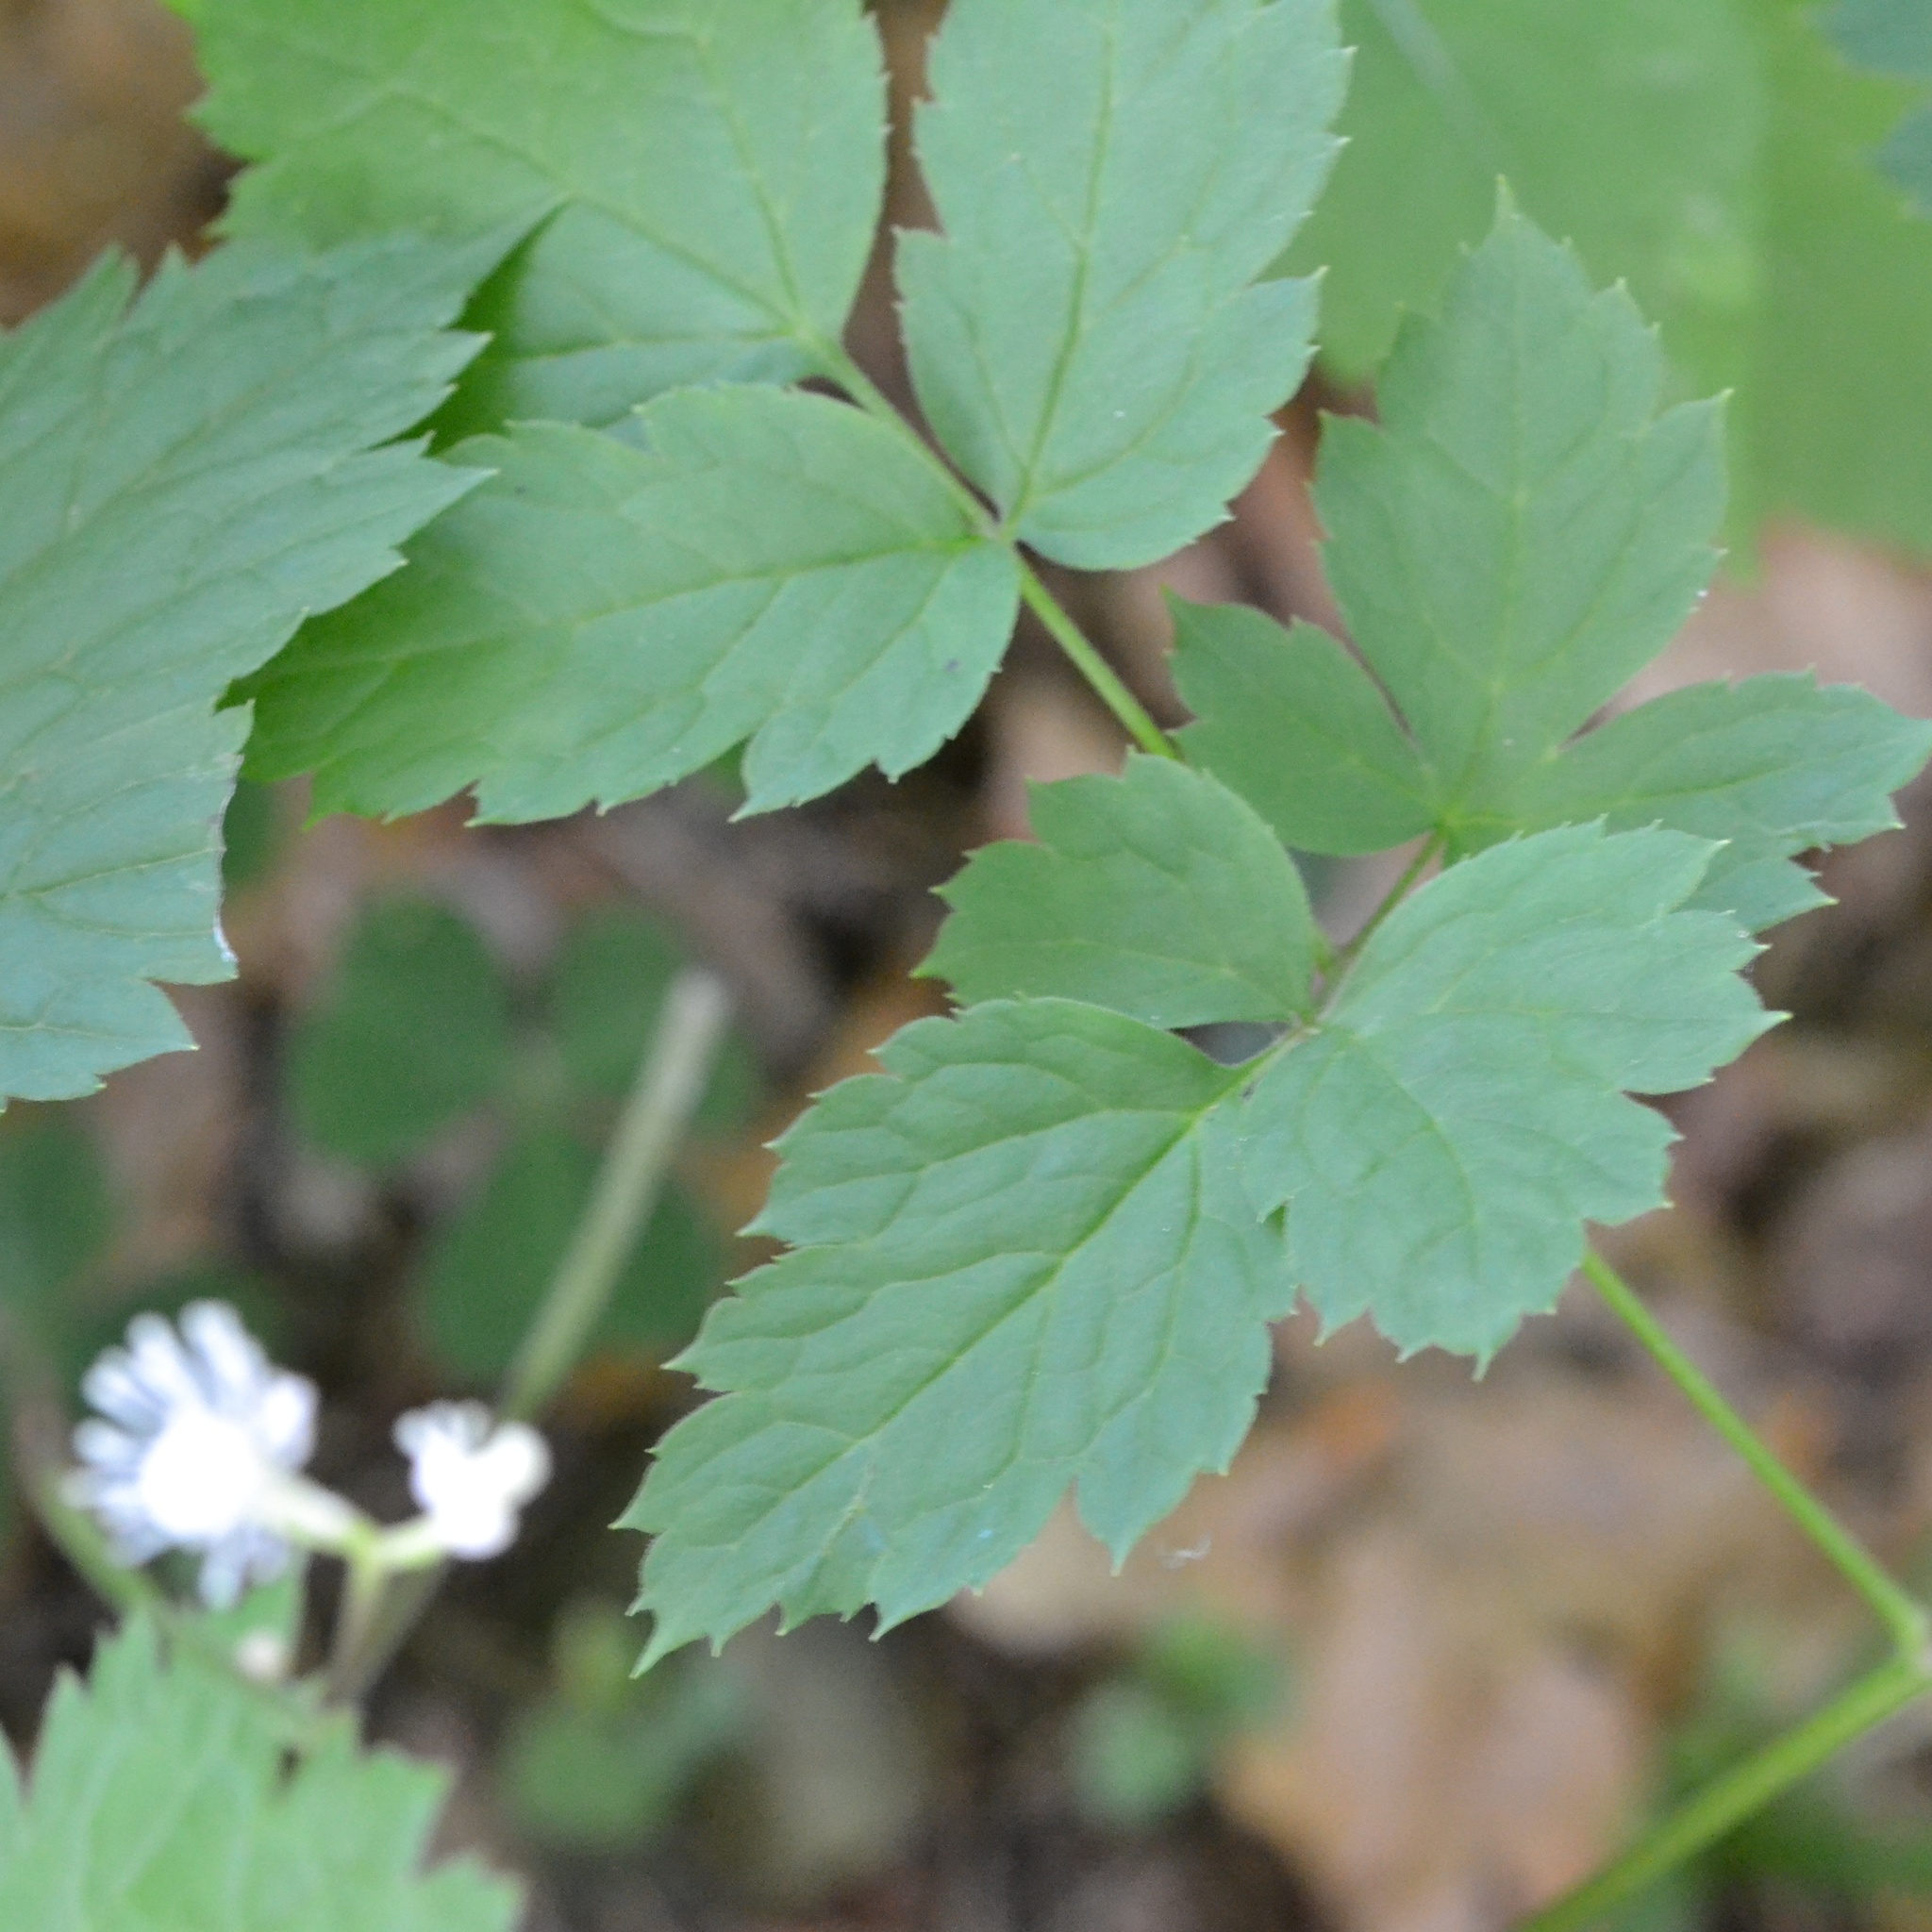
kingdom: Plantae
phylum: Tracheophyta
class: Magnoliopsida
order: Ranunculales
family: Ranunculaceae
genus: Actaea
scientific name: Actaea spicata
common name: Baneberry
